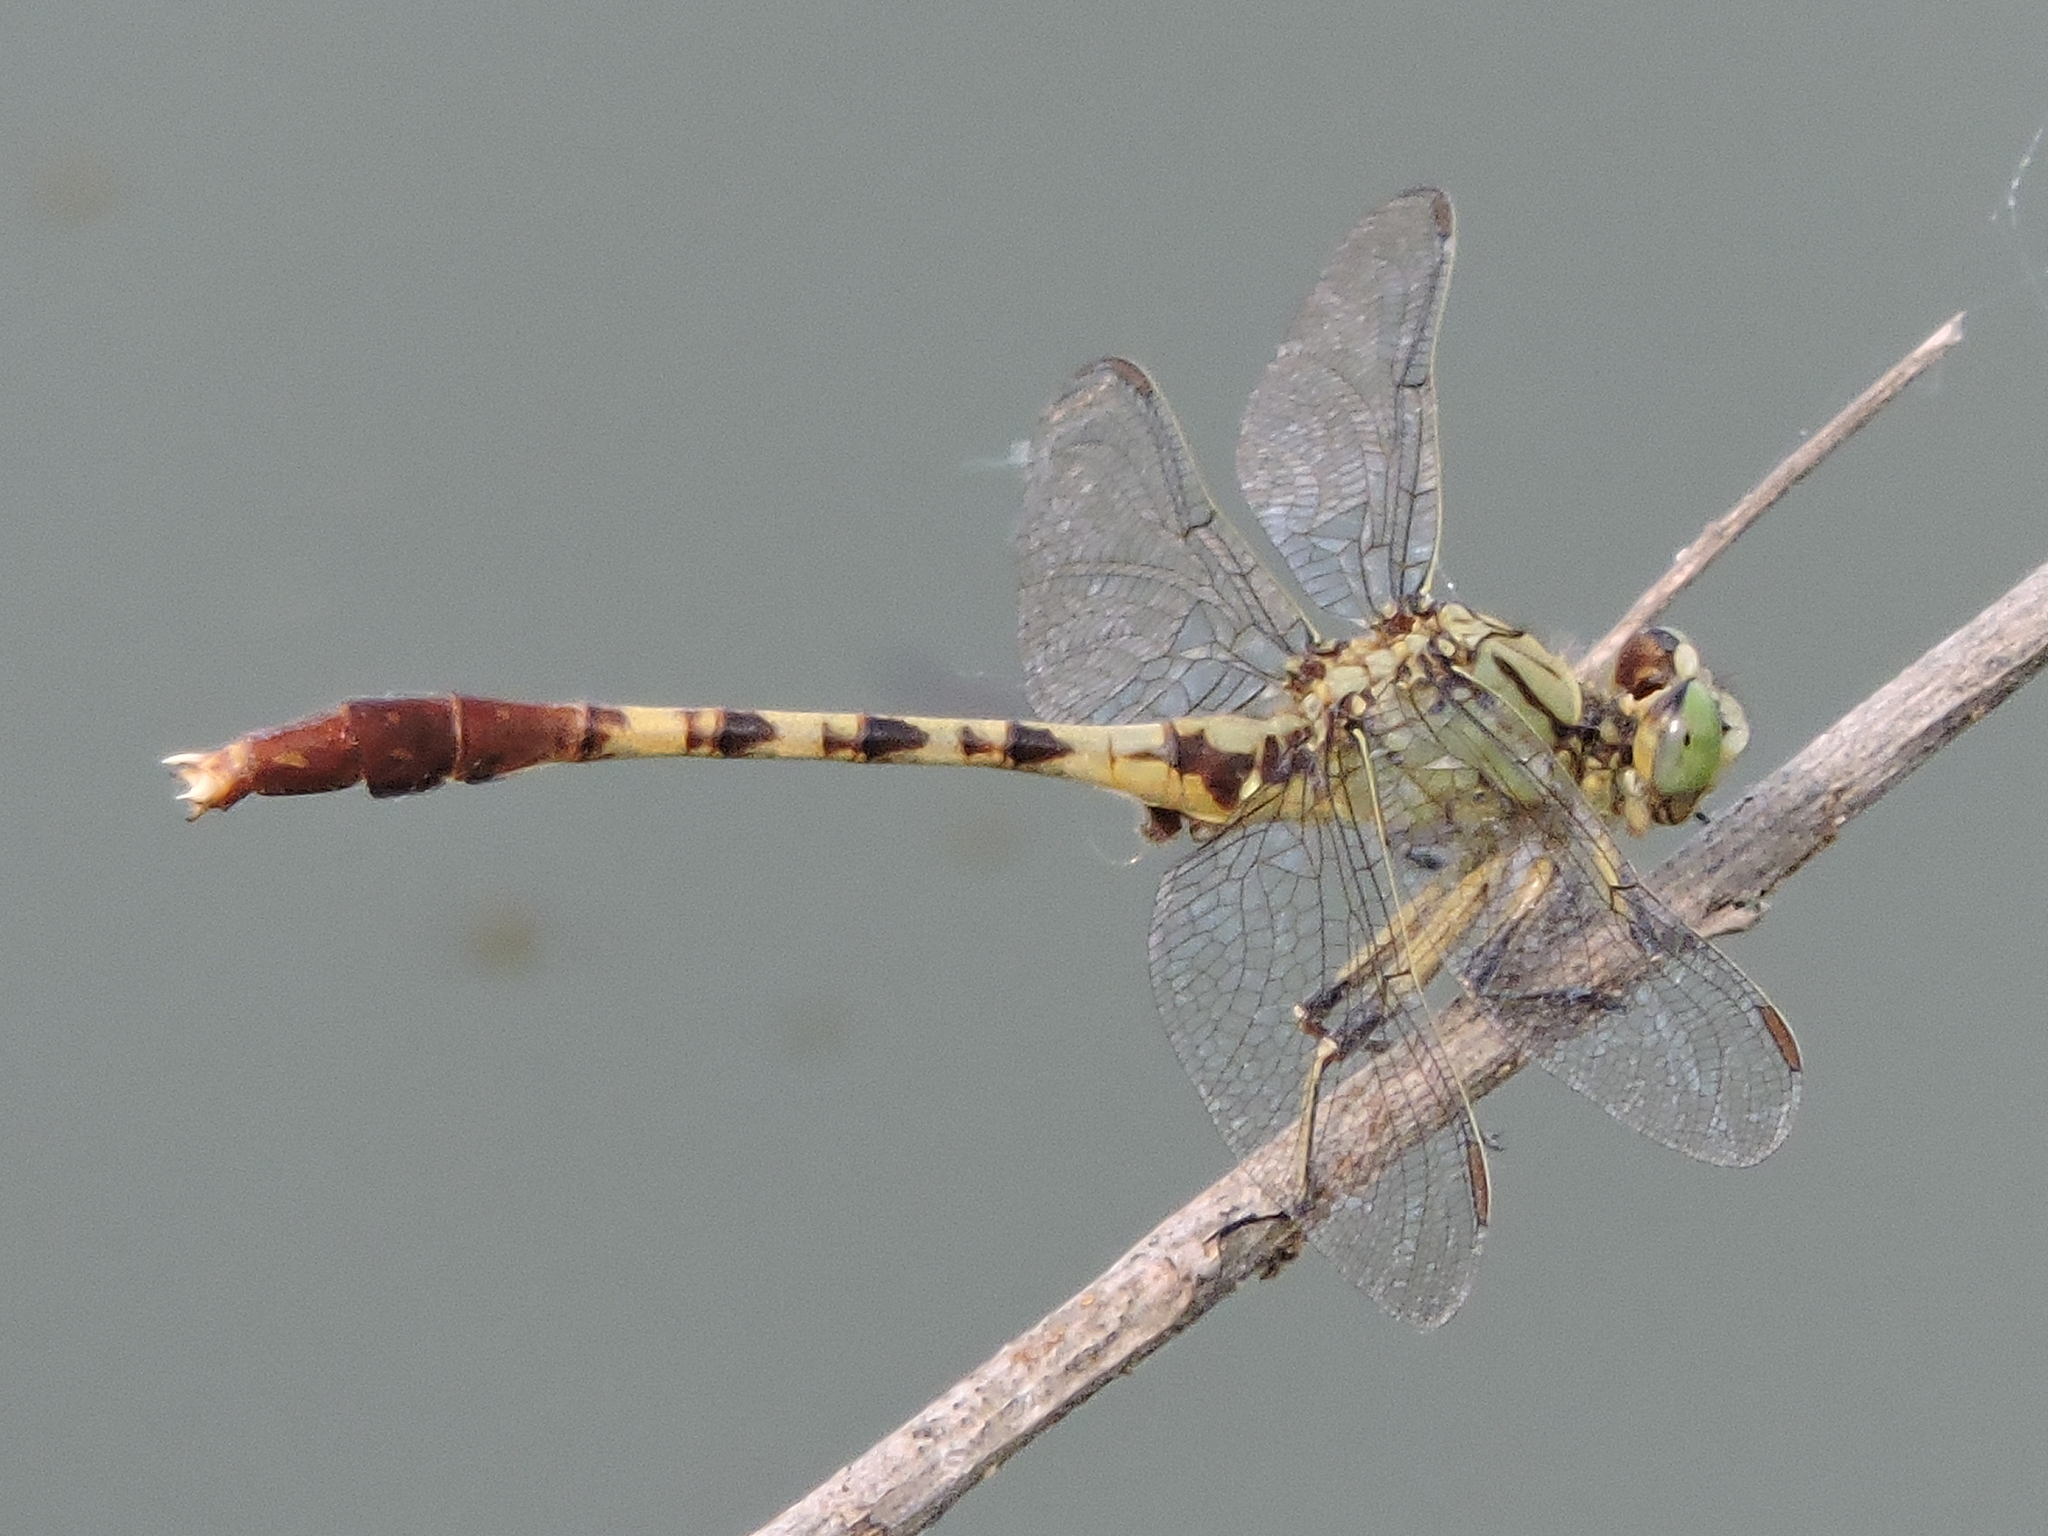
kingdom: Animalia
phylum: Arthropoda
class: Insecta
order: Odonata
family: Gomphidae
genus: Arigomphus
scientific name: Arigomphus submedianus
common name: Jade clubtail
